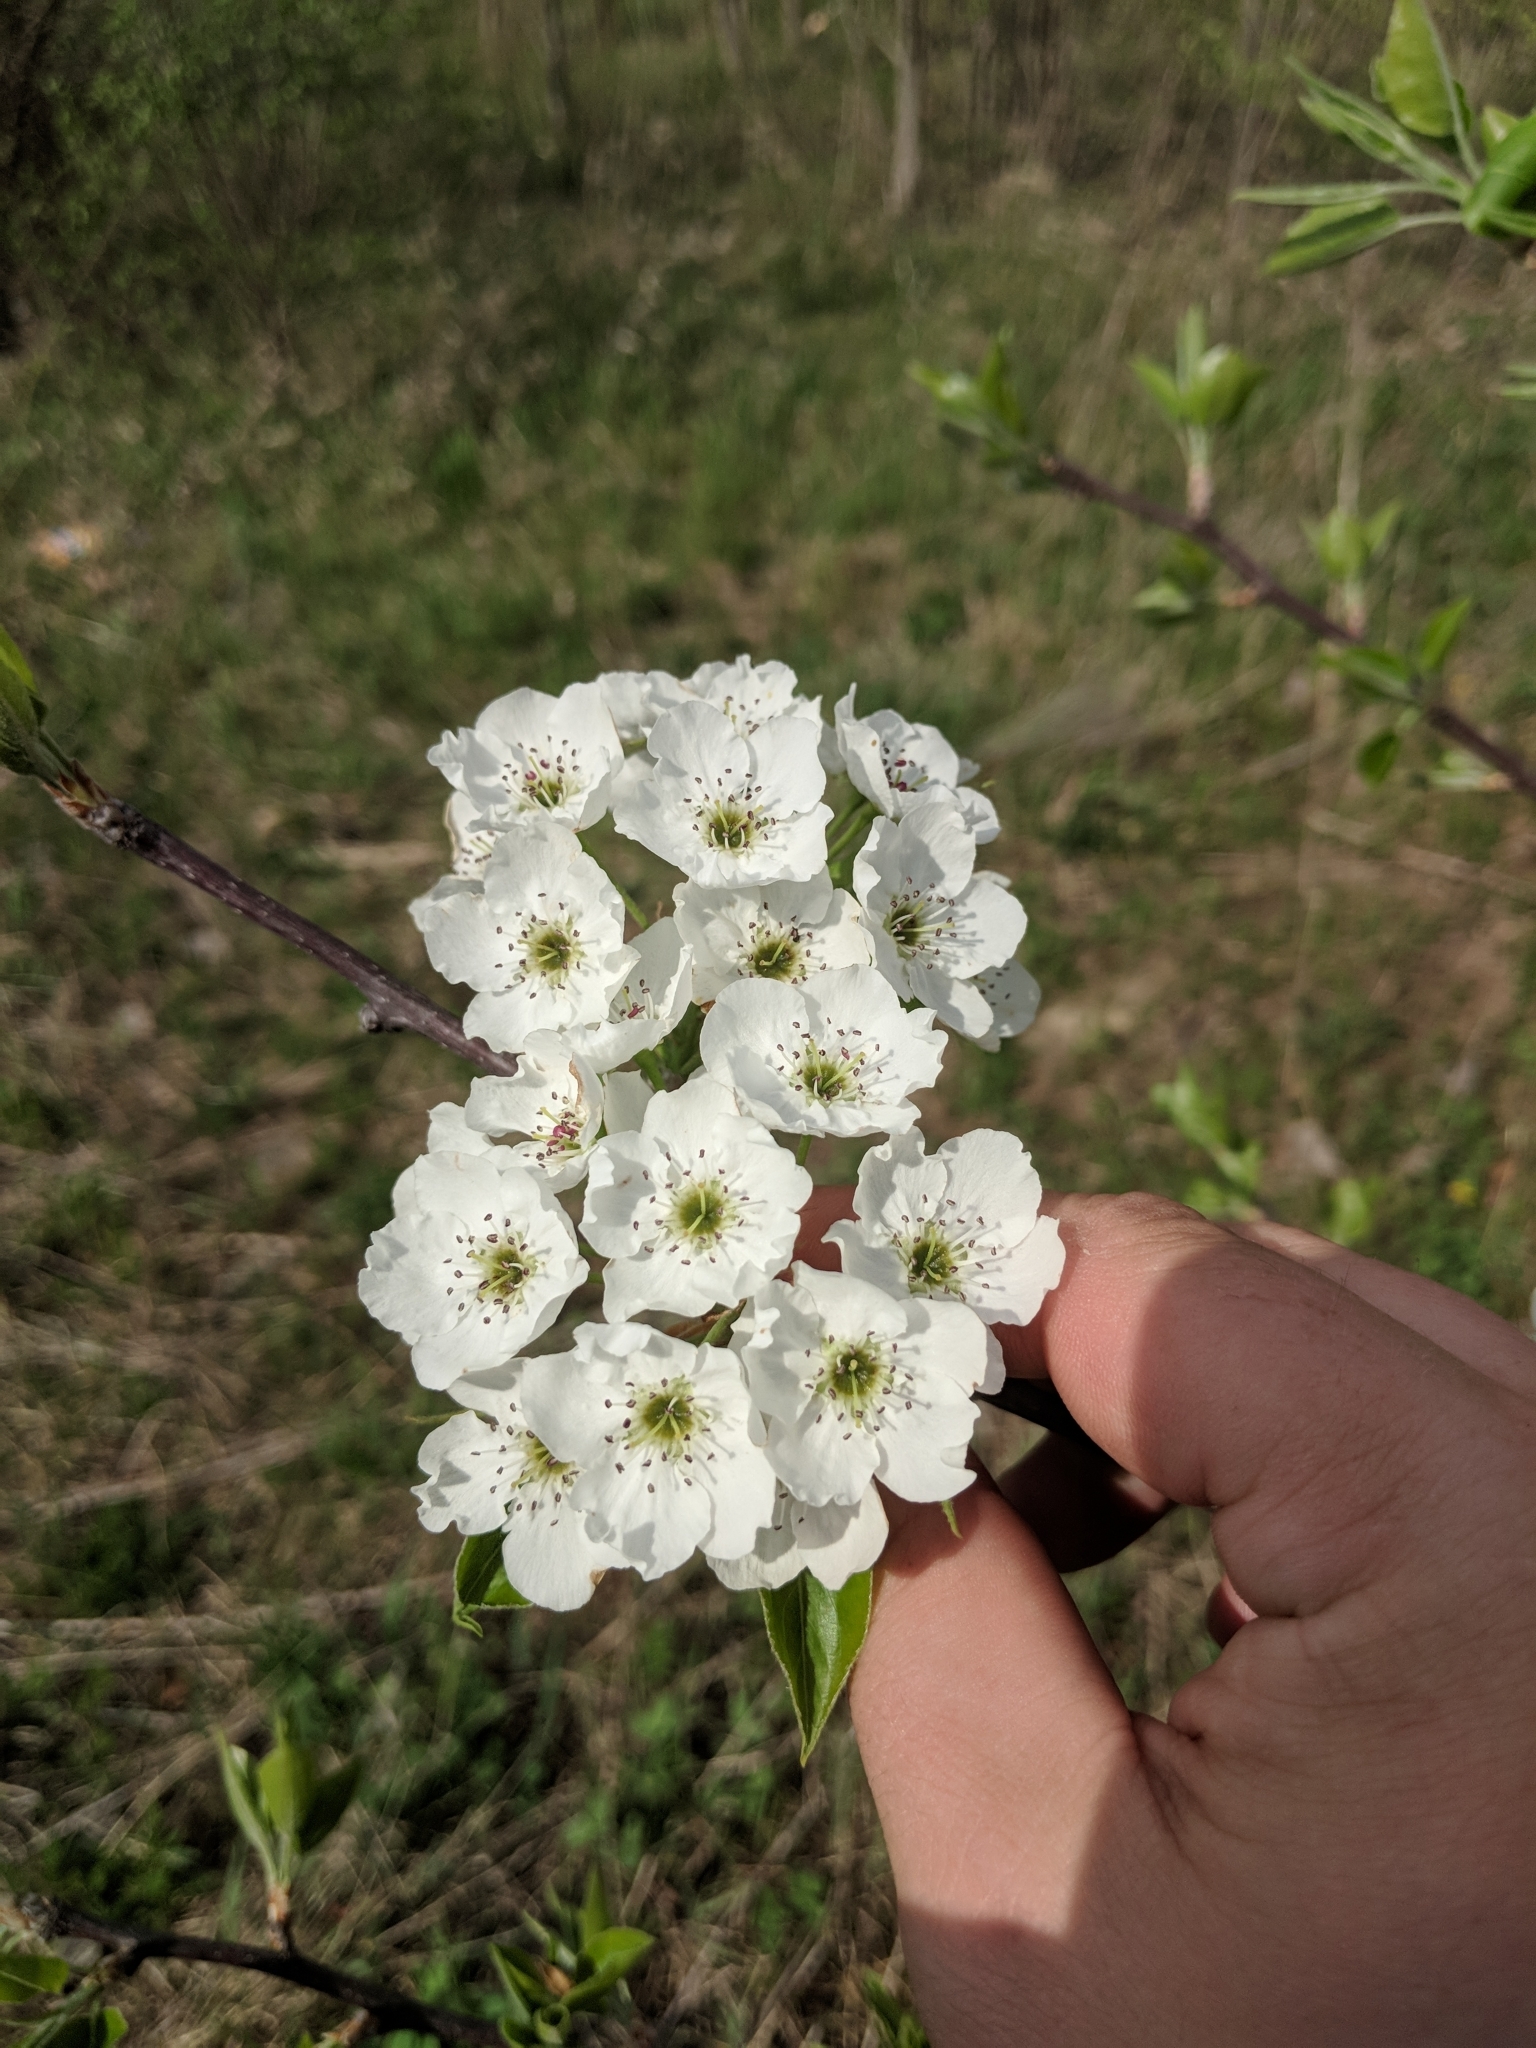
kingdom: Plantae
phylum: Tracheophyta
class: Magnoliopsida
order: Rosales
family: Rosaceae
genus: Pyrus
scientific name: Pyrus calleryana
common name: Callery pear
